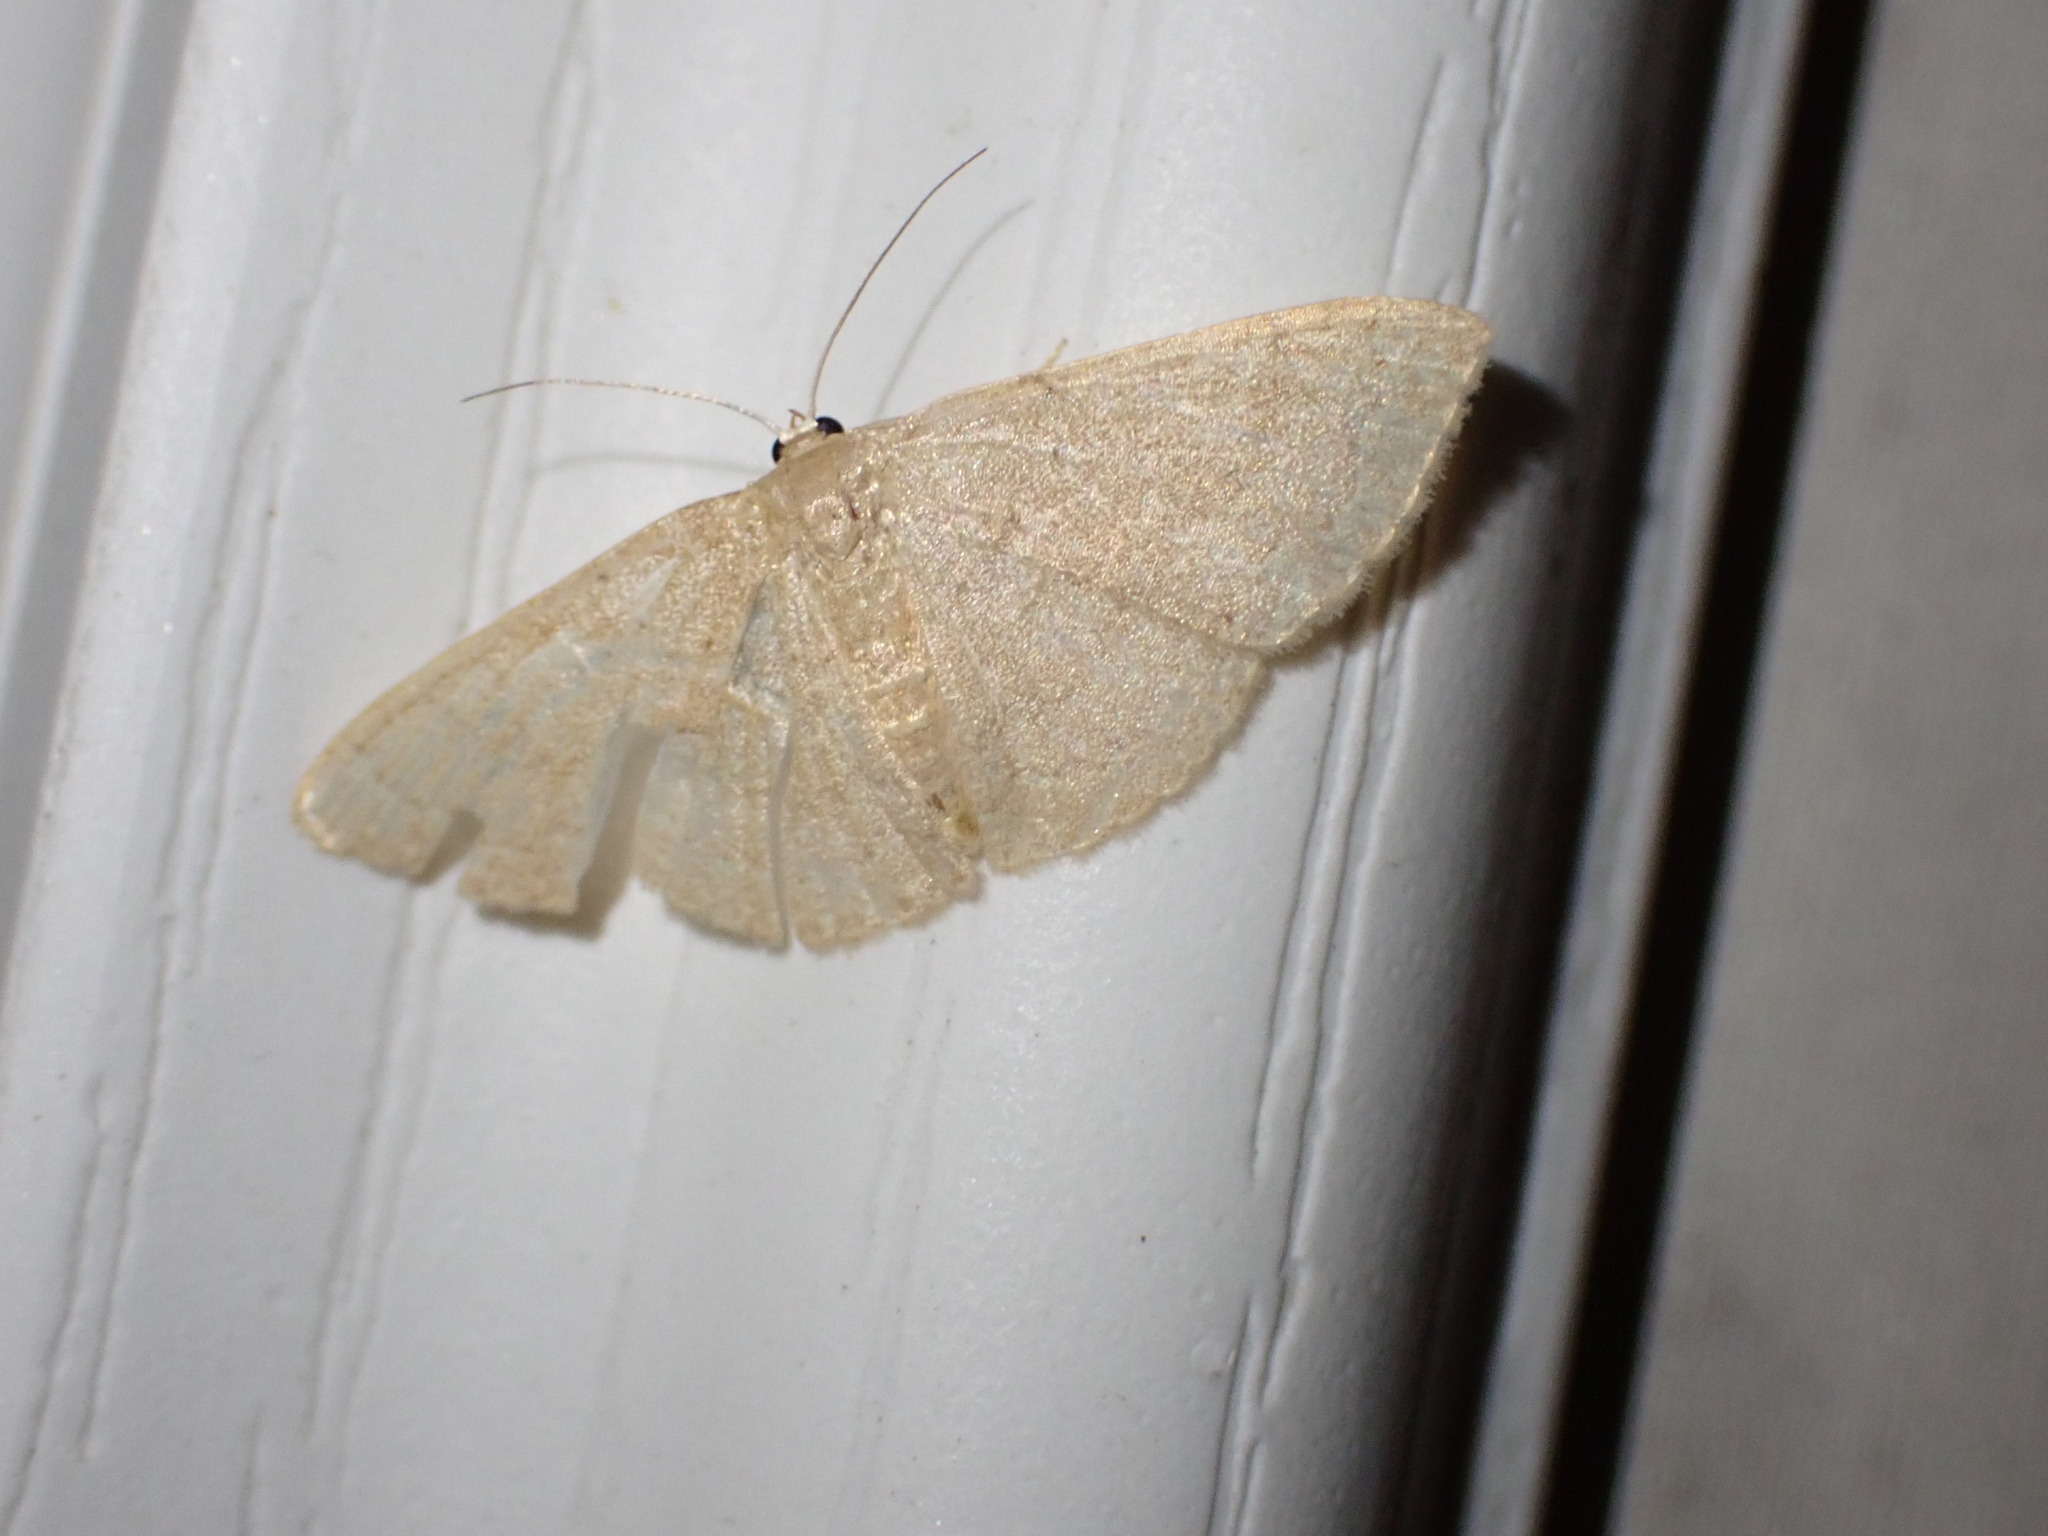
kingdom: Animalia
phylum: Arthropoda
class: Insecta
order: Lepidoptera
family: Geometridae
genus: Pleuroprucha
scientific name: Pleuroprucha insulsaria
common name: Common tan wave
